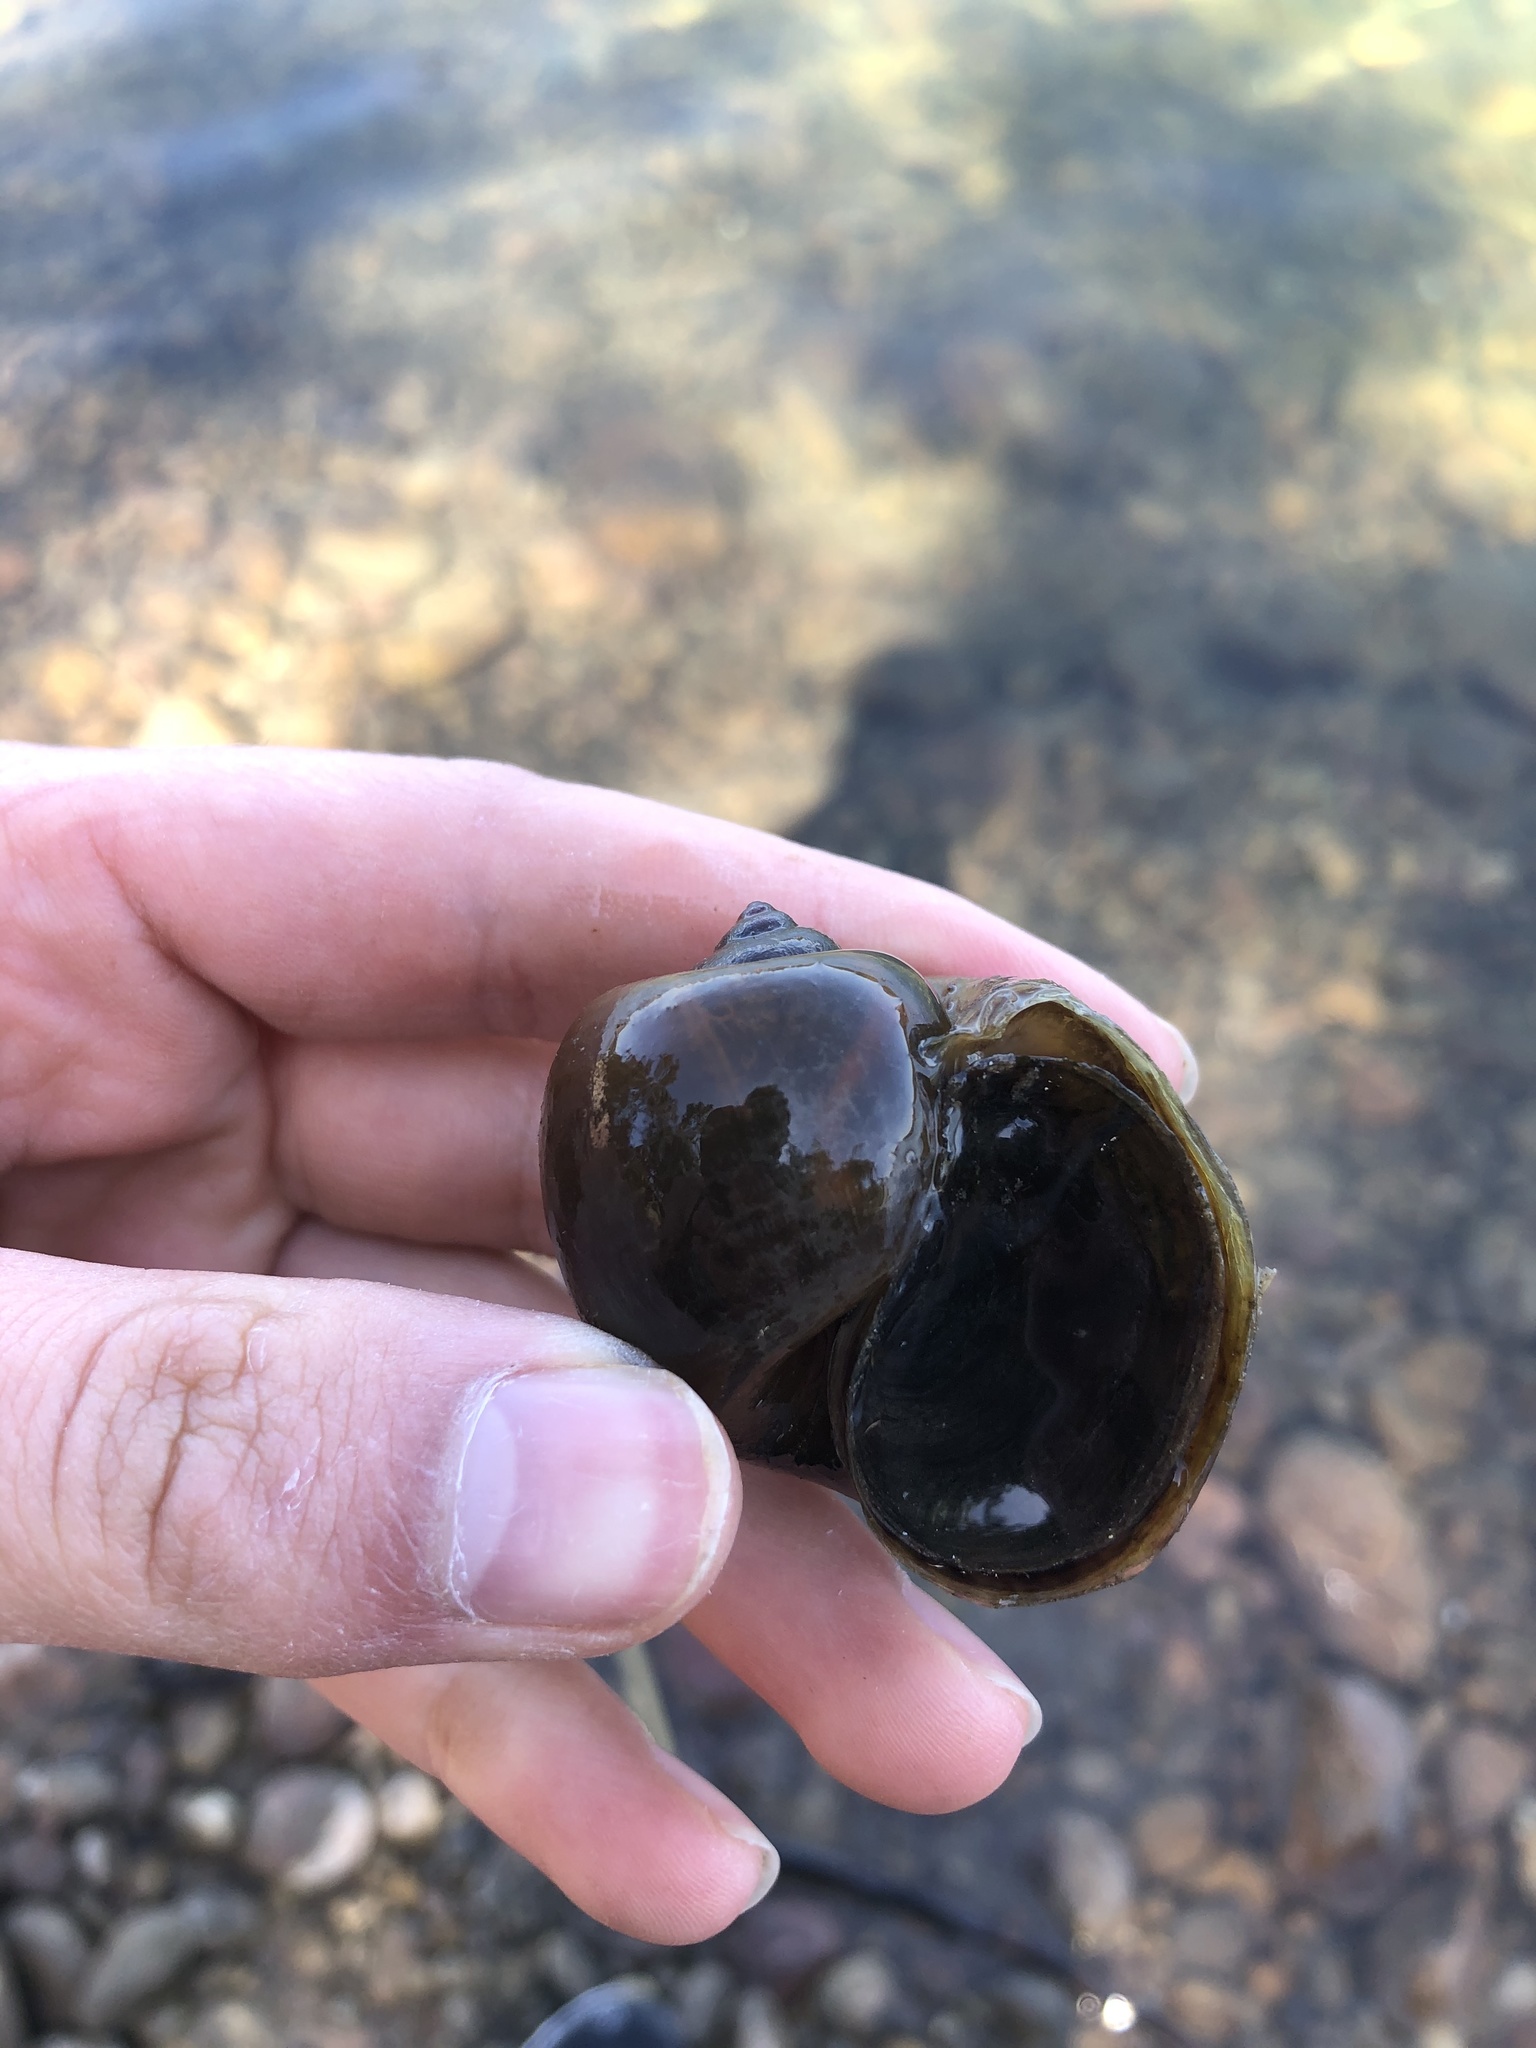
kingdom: Animalia
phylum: Mollusca
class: Gastropoda
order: Architaenioglossa
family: Ampullariidae
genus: Pomacea
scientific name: Pomacea canaliculata
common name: Channeled applesnail
